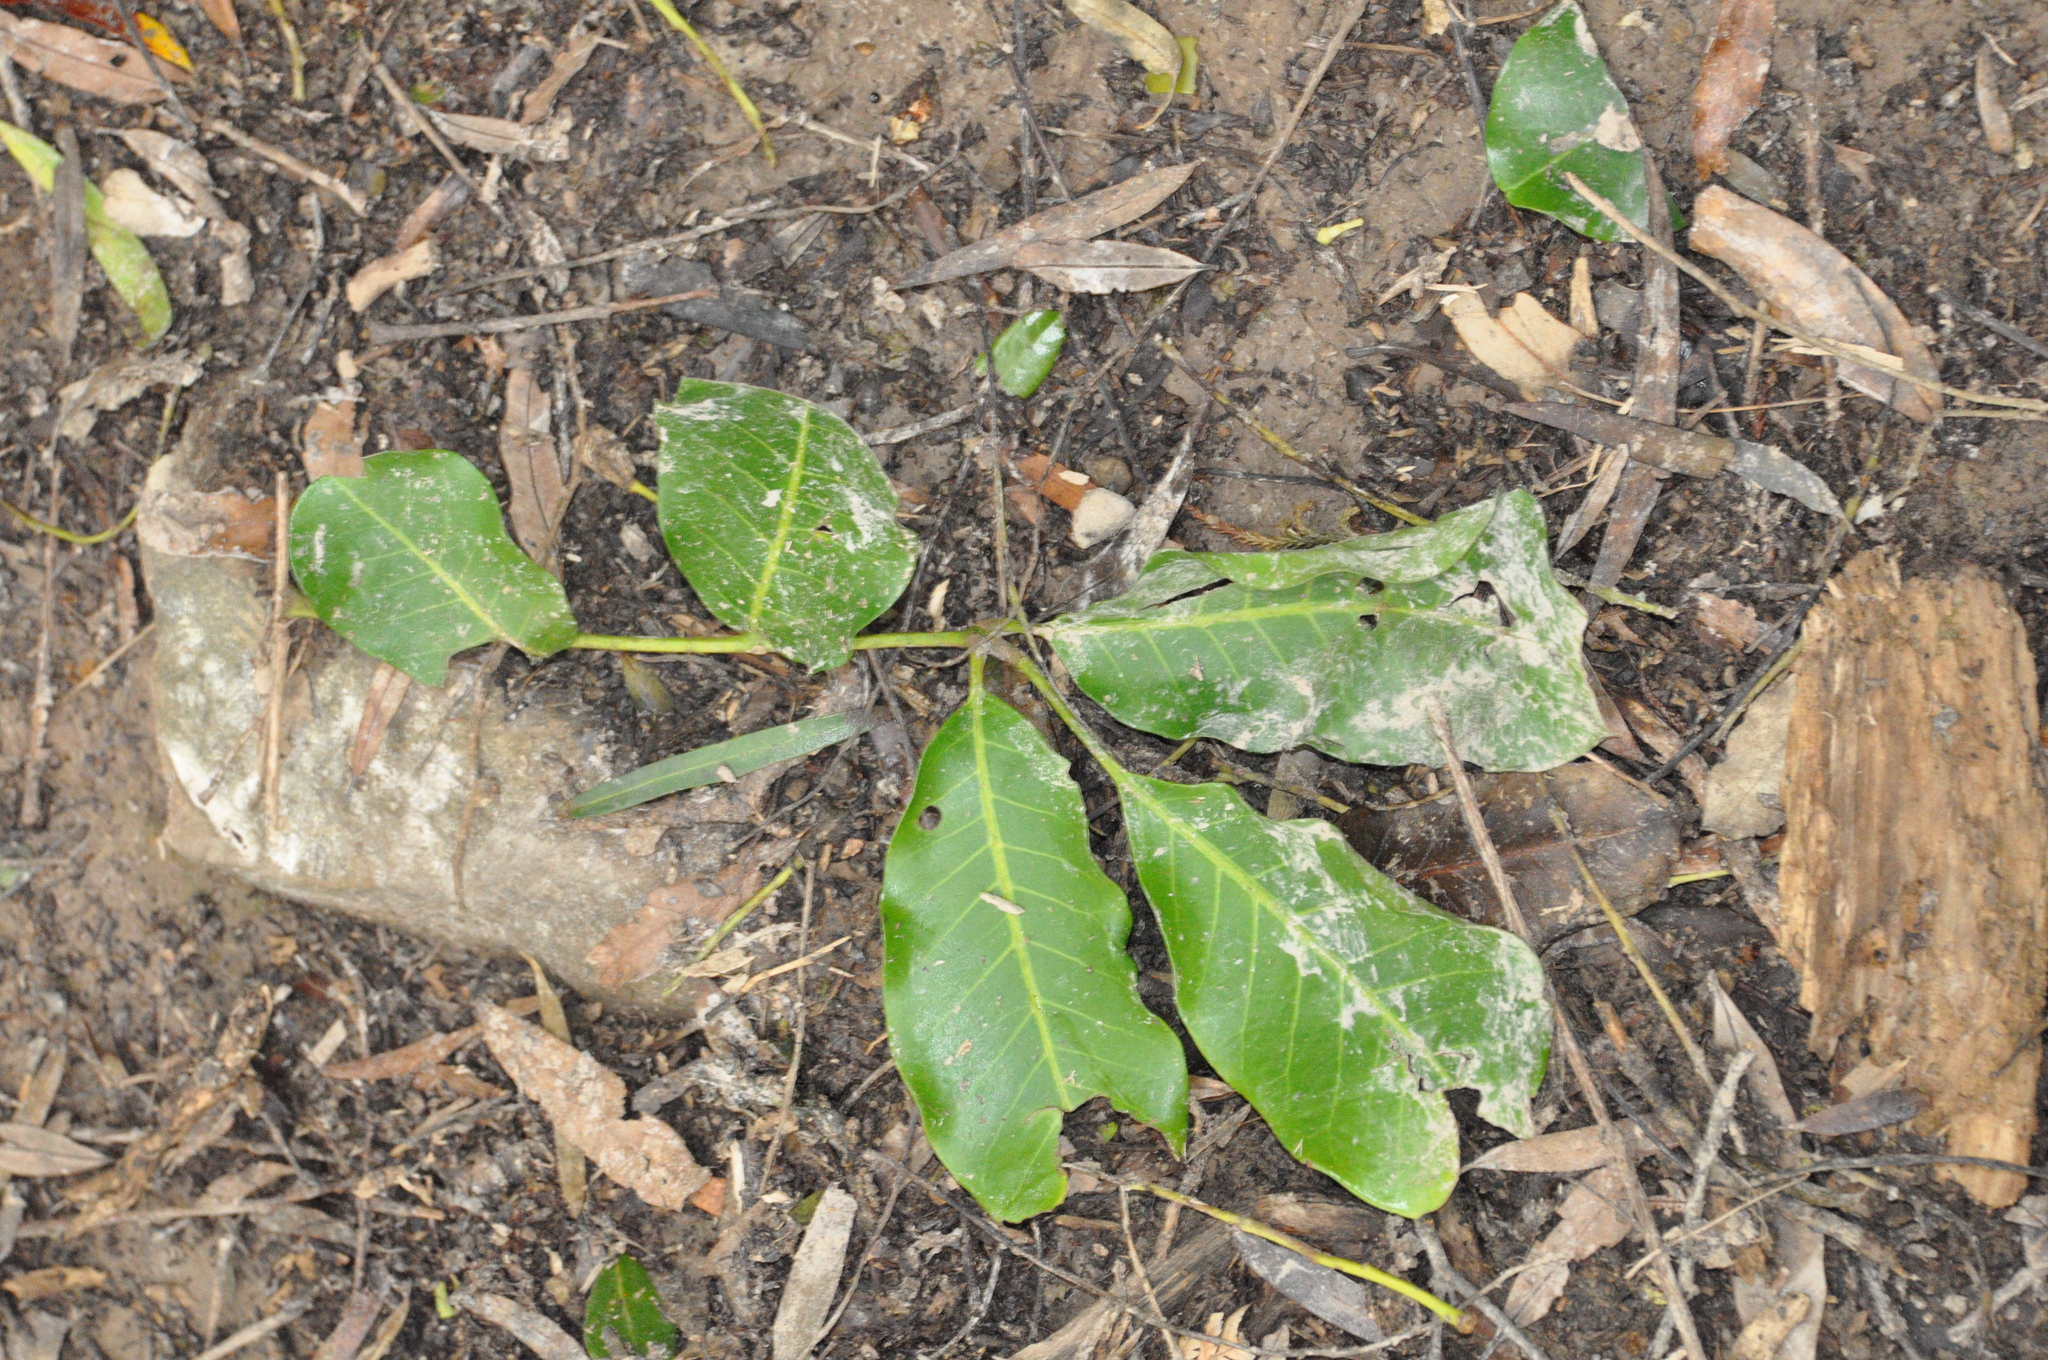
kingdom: Plantae
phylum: Tracheophyta
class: Magnoliopsida
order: Sapindales
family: Meliaceae
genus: Didymocheton
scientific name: Didymocheton spectabilis
